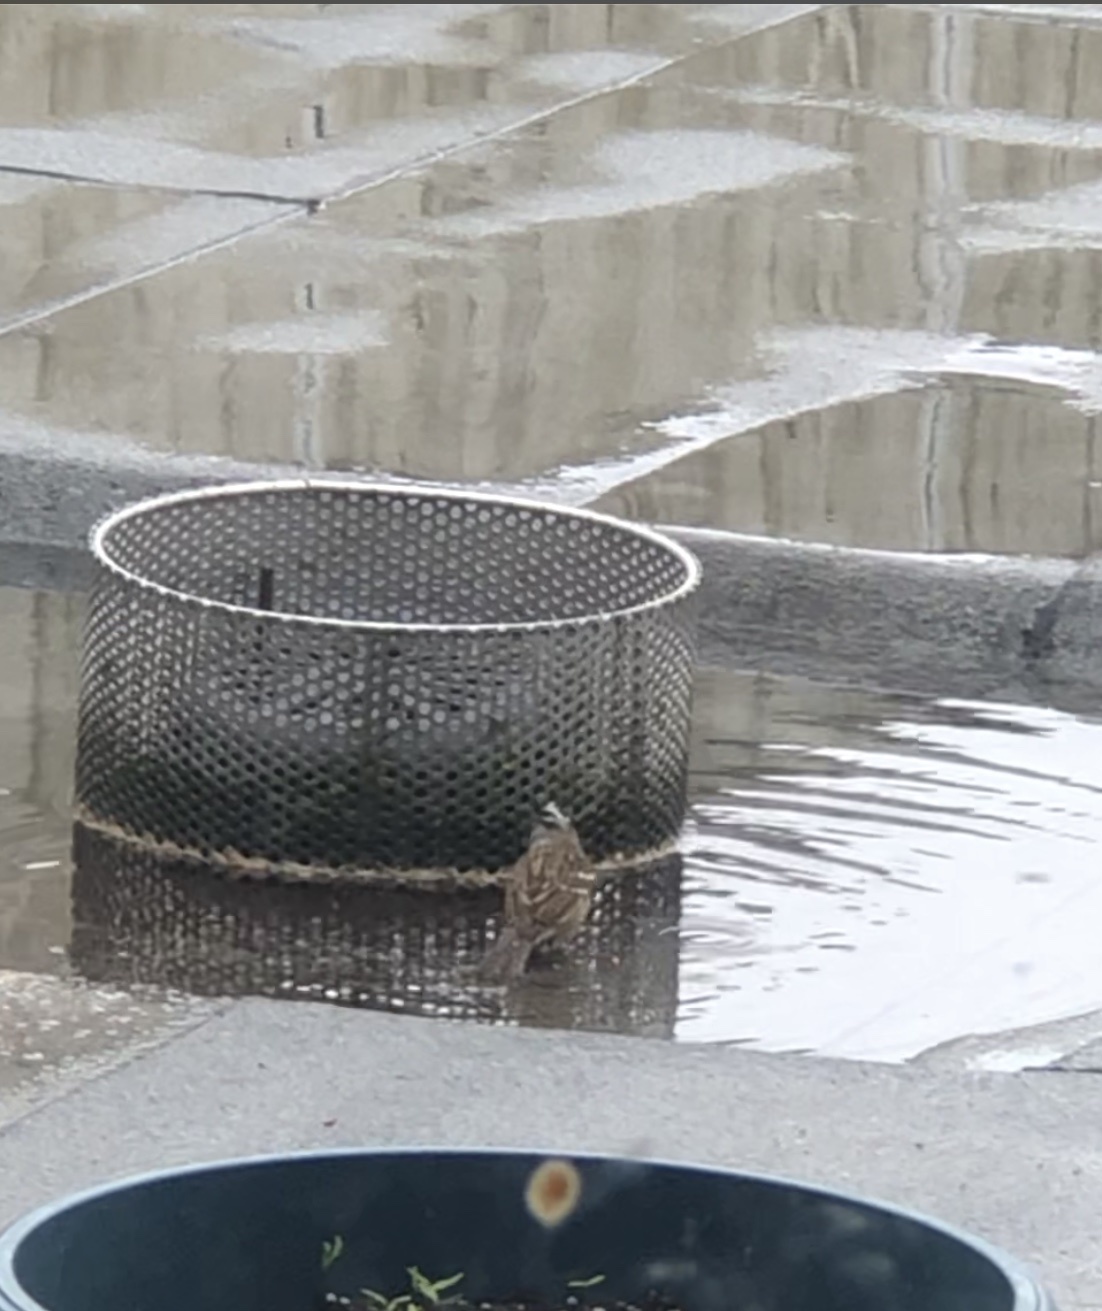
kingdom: Animalia
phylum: Chordata
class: Aves
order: Passeriformes
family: Passerellidae
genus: Zonotrichia
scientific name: Zonotrichia leucophrys
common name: White-crowned sparrow
